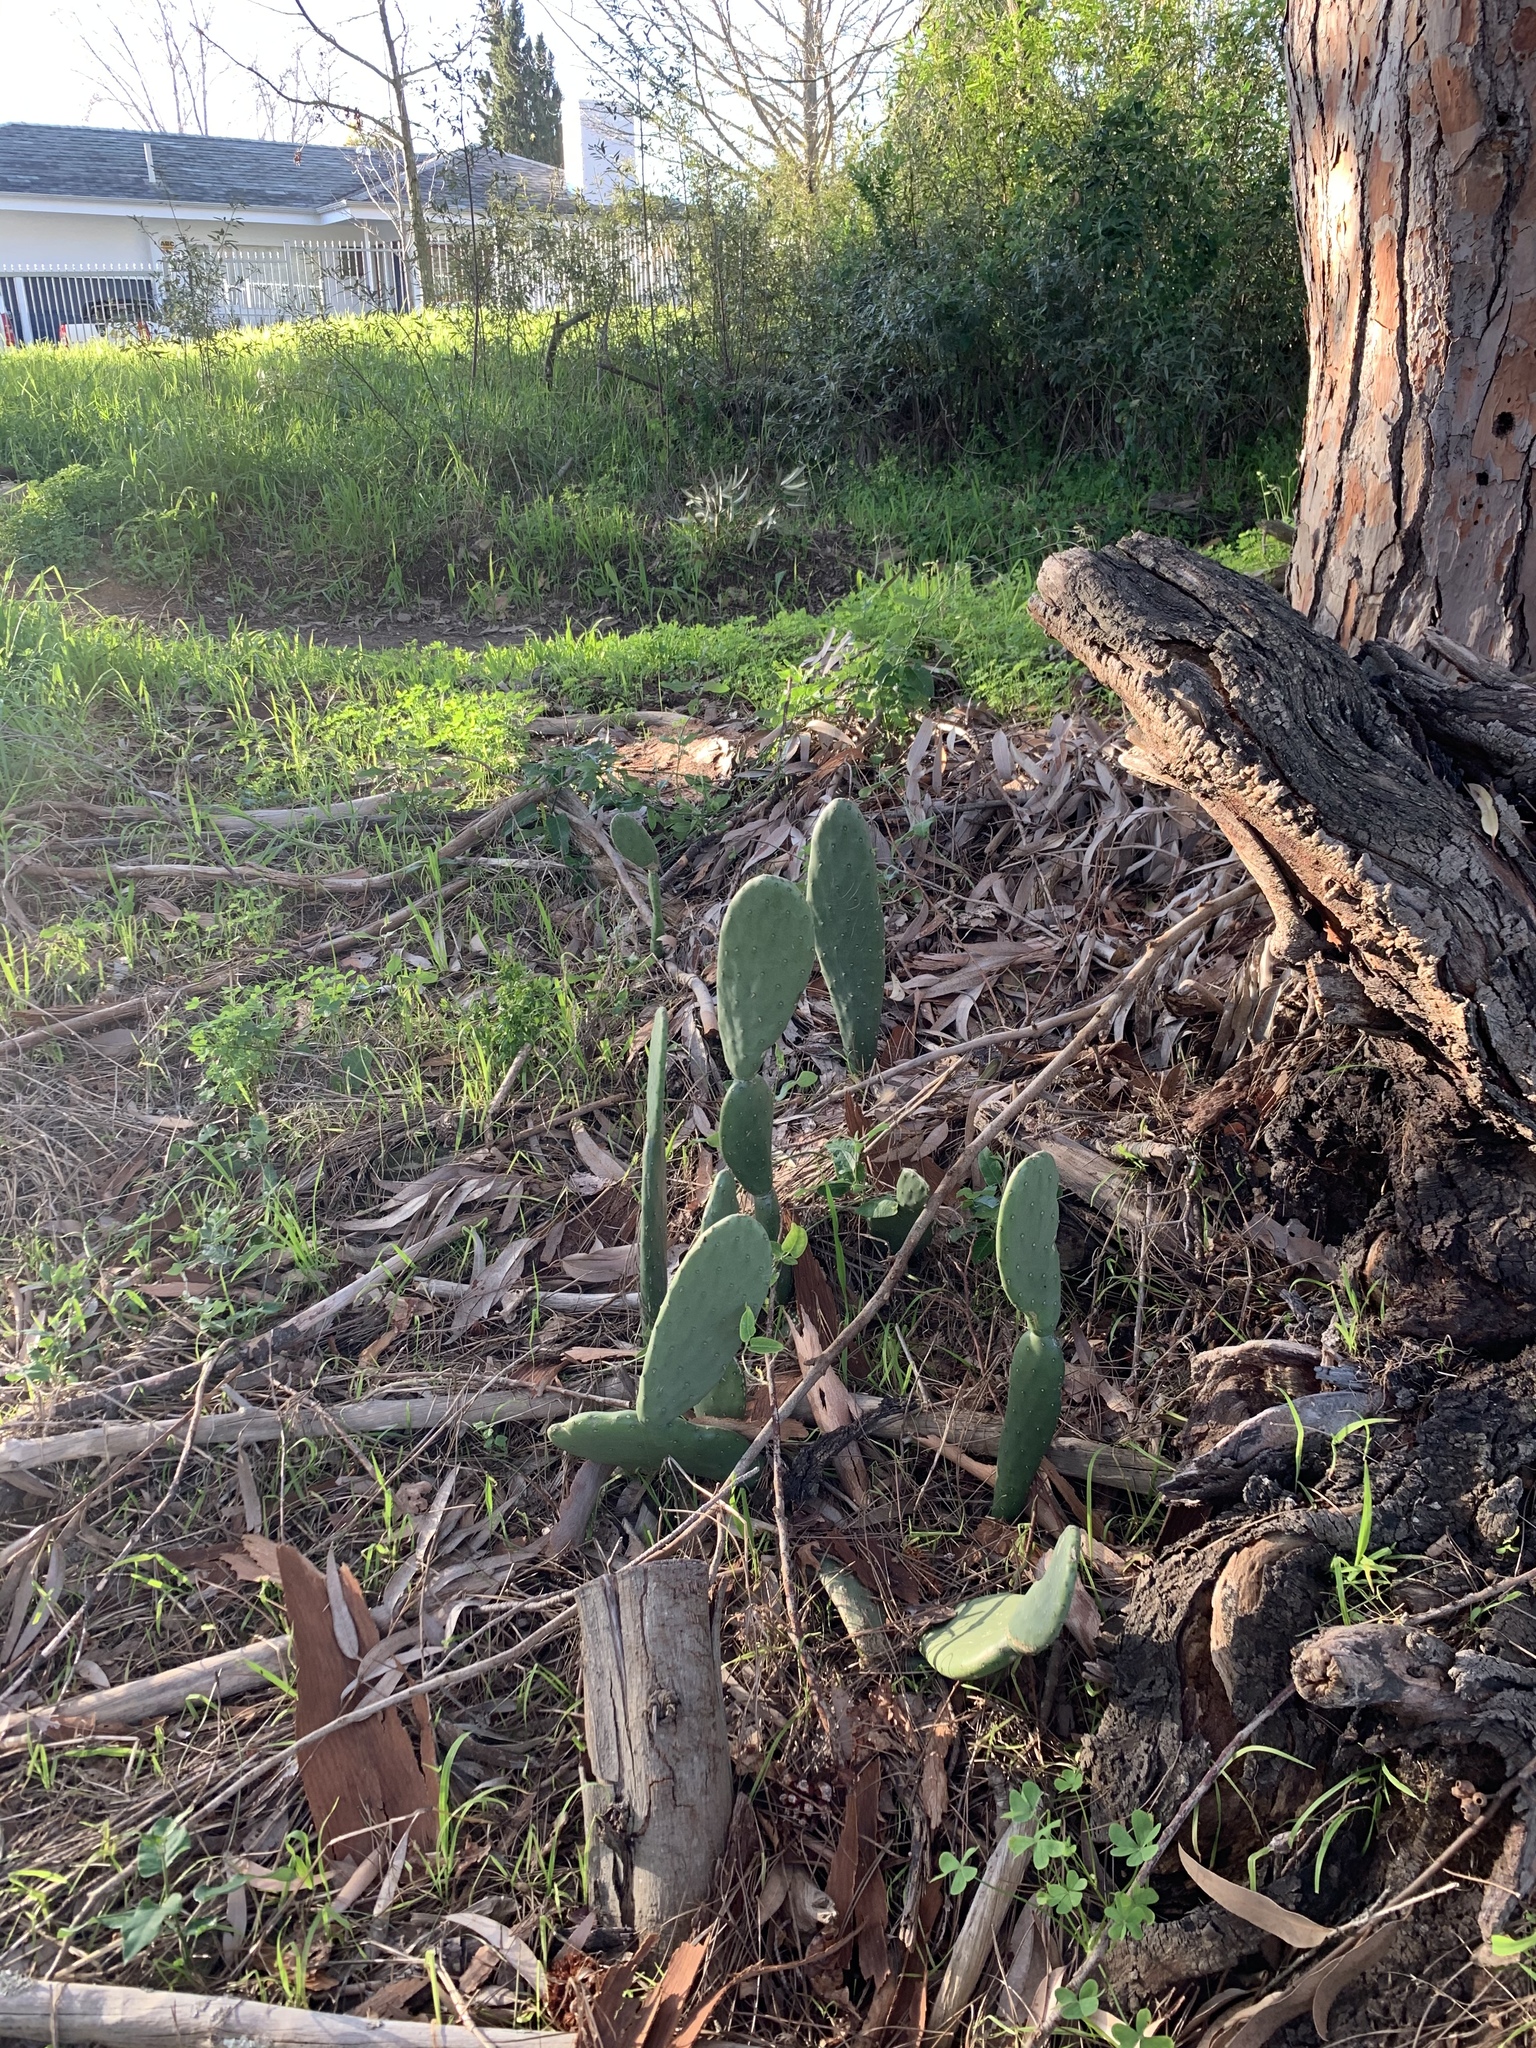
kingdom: Plantae
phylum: Tracheophyta
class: Magnoliopsida
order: Caryophyllales
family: Cactaceae
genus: Opuntia
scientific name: Opuntia ficus-indica
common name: Barbary fig
